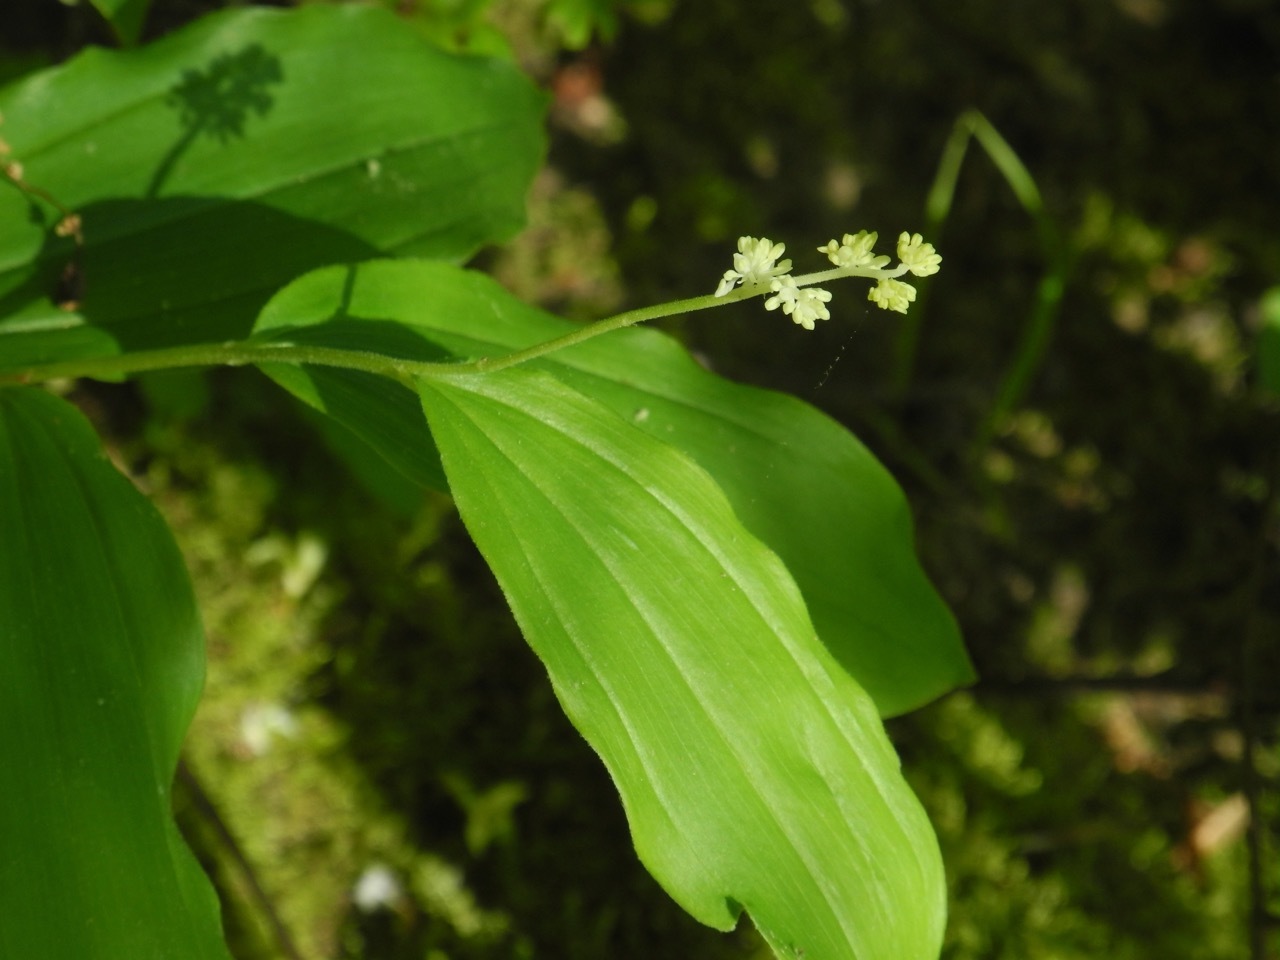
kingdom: Plantae
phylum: Tracheophyta
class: Liliopsida
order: Asparagales
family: Asparagaceae
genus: Maianthemum
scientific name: Maianthemum racemosum
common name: False spikenard
